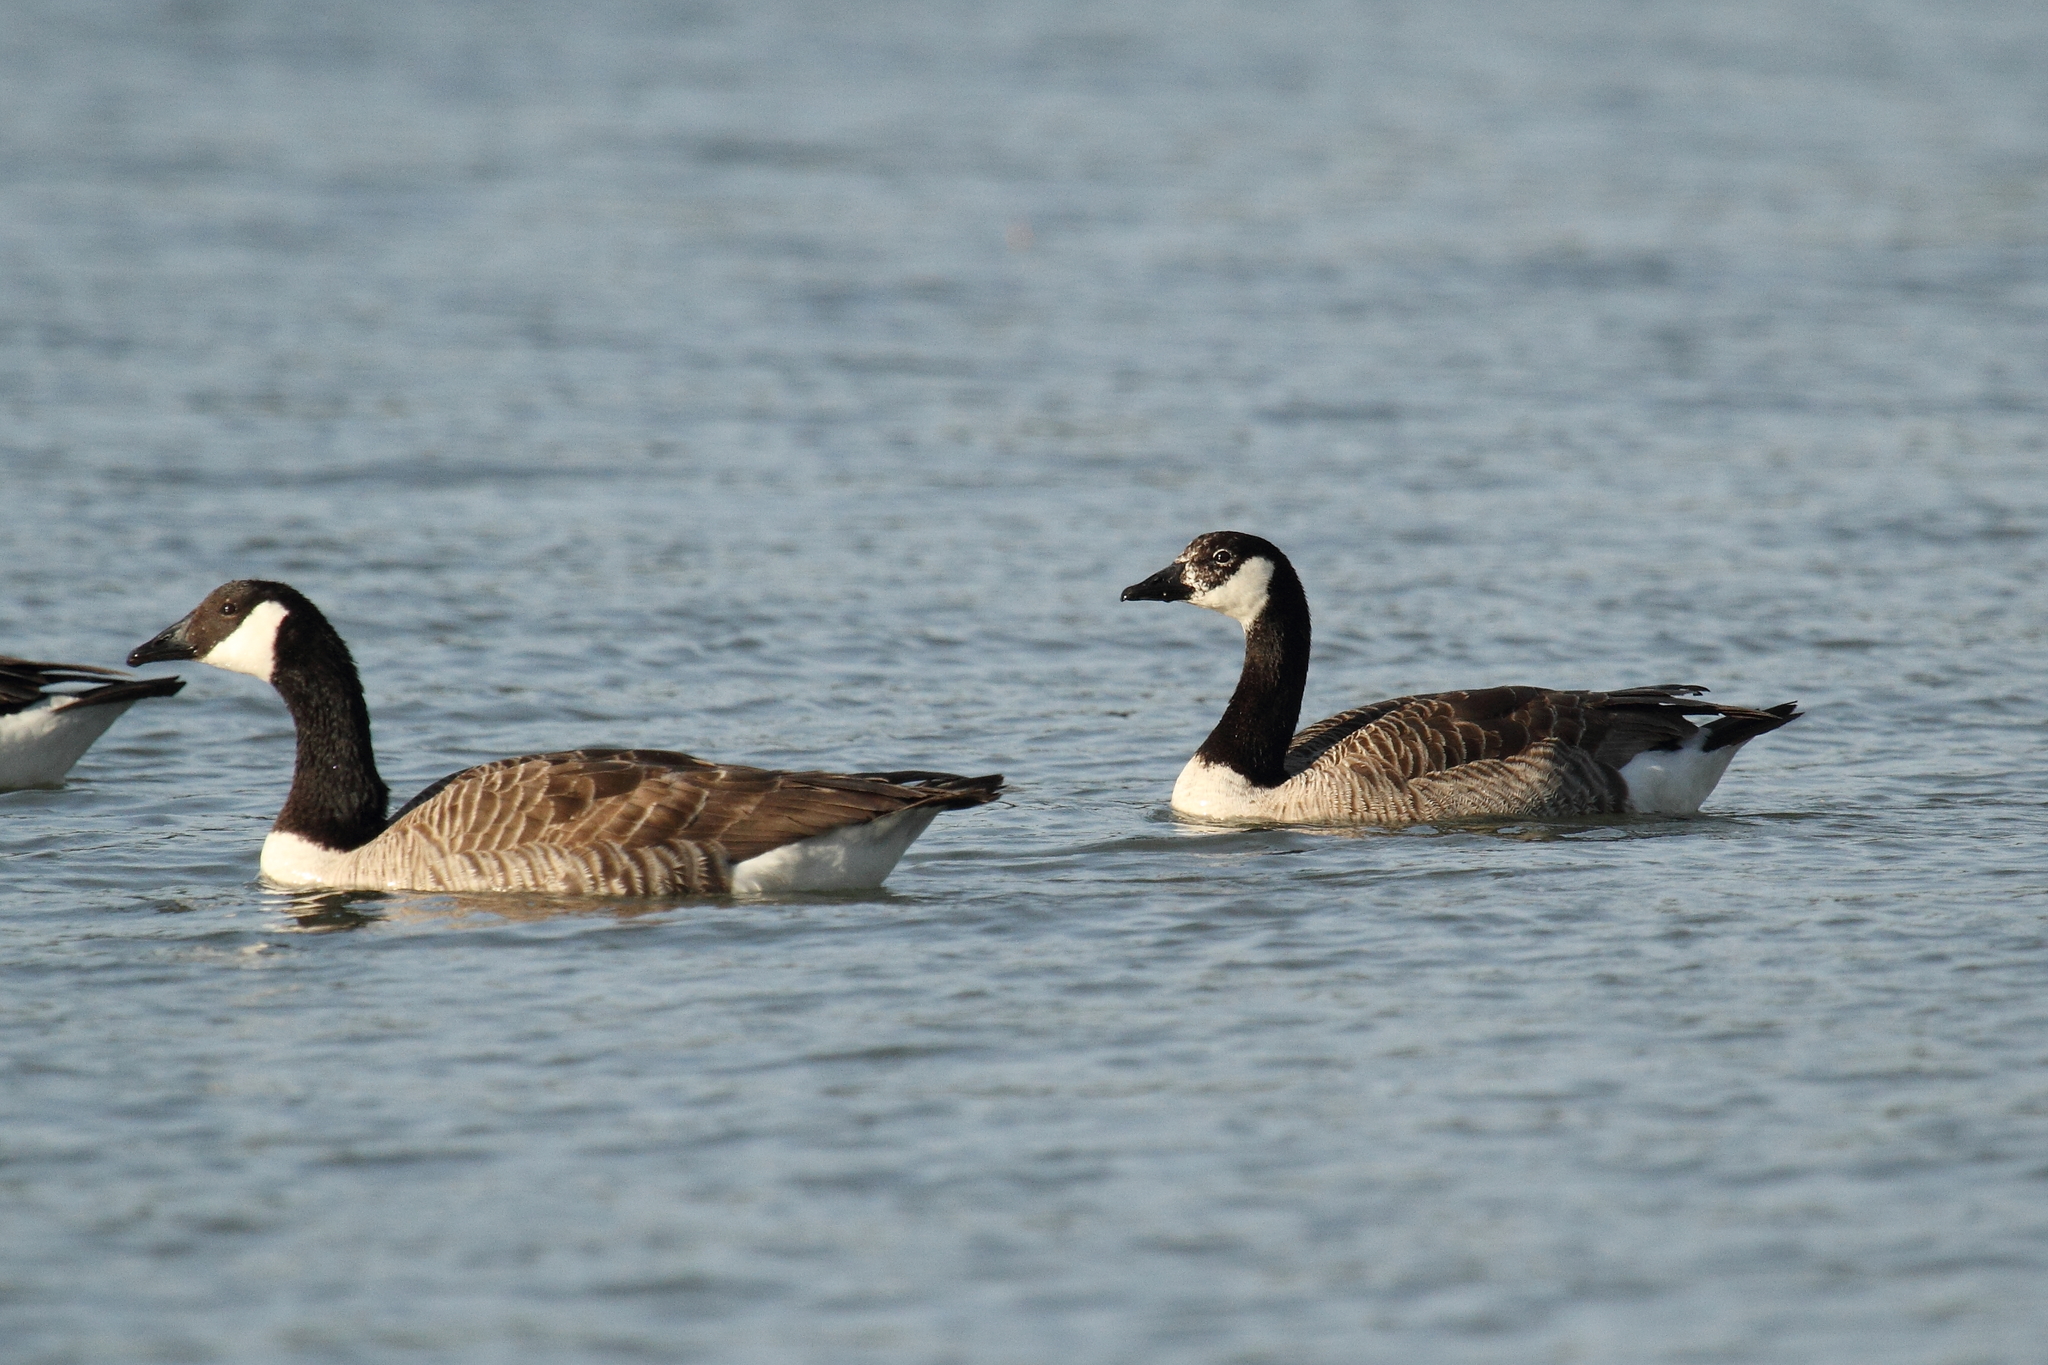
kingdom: Animalia
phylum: Chordata
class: Aves
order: Anseriformes
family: Anatidae
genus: Branta
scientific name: Branta canadensis
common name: Canada goose
